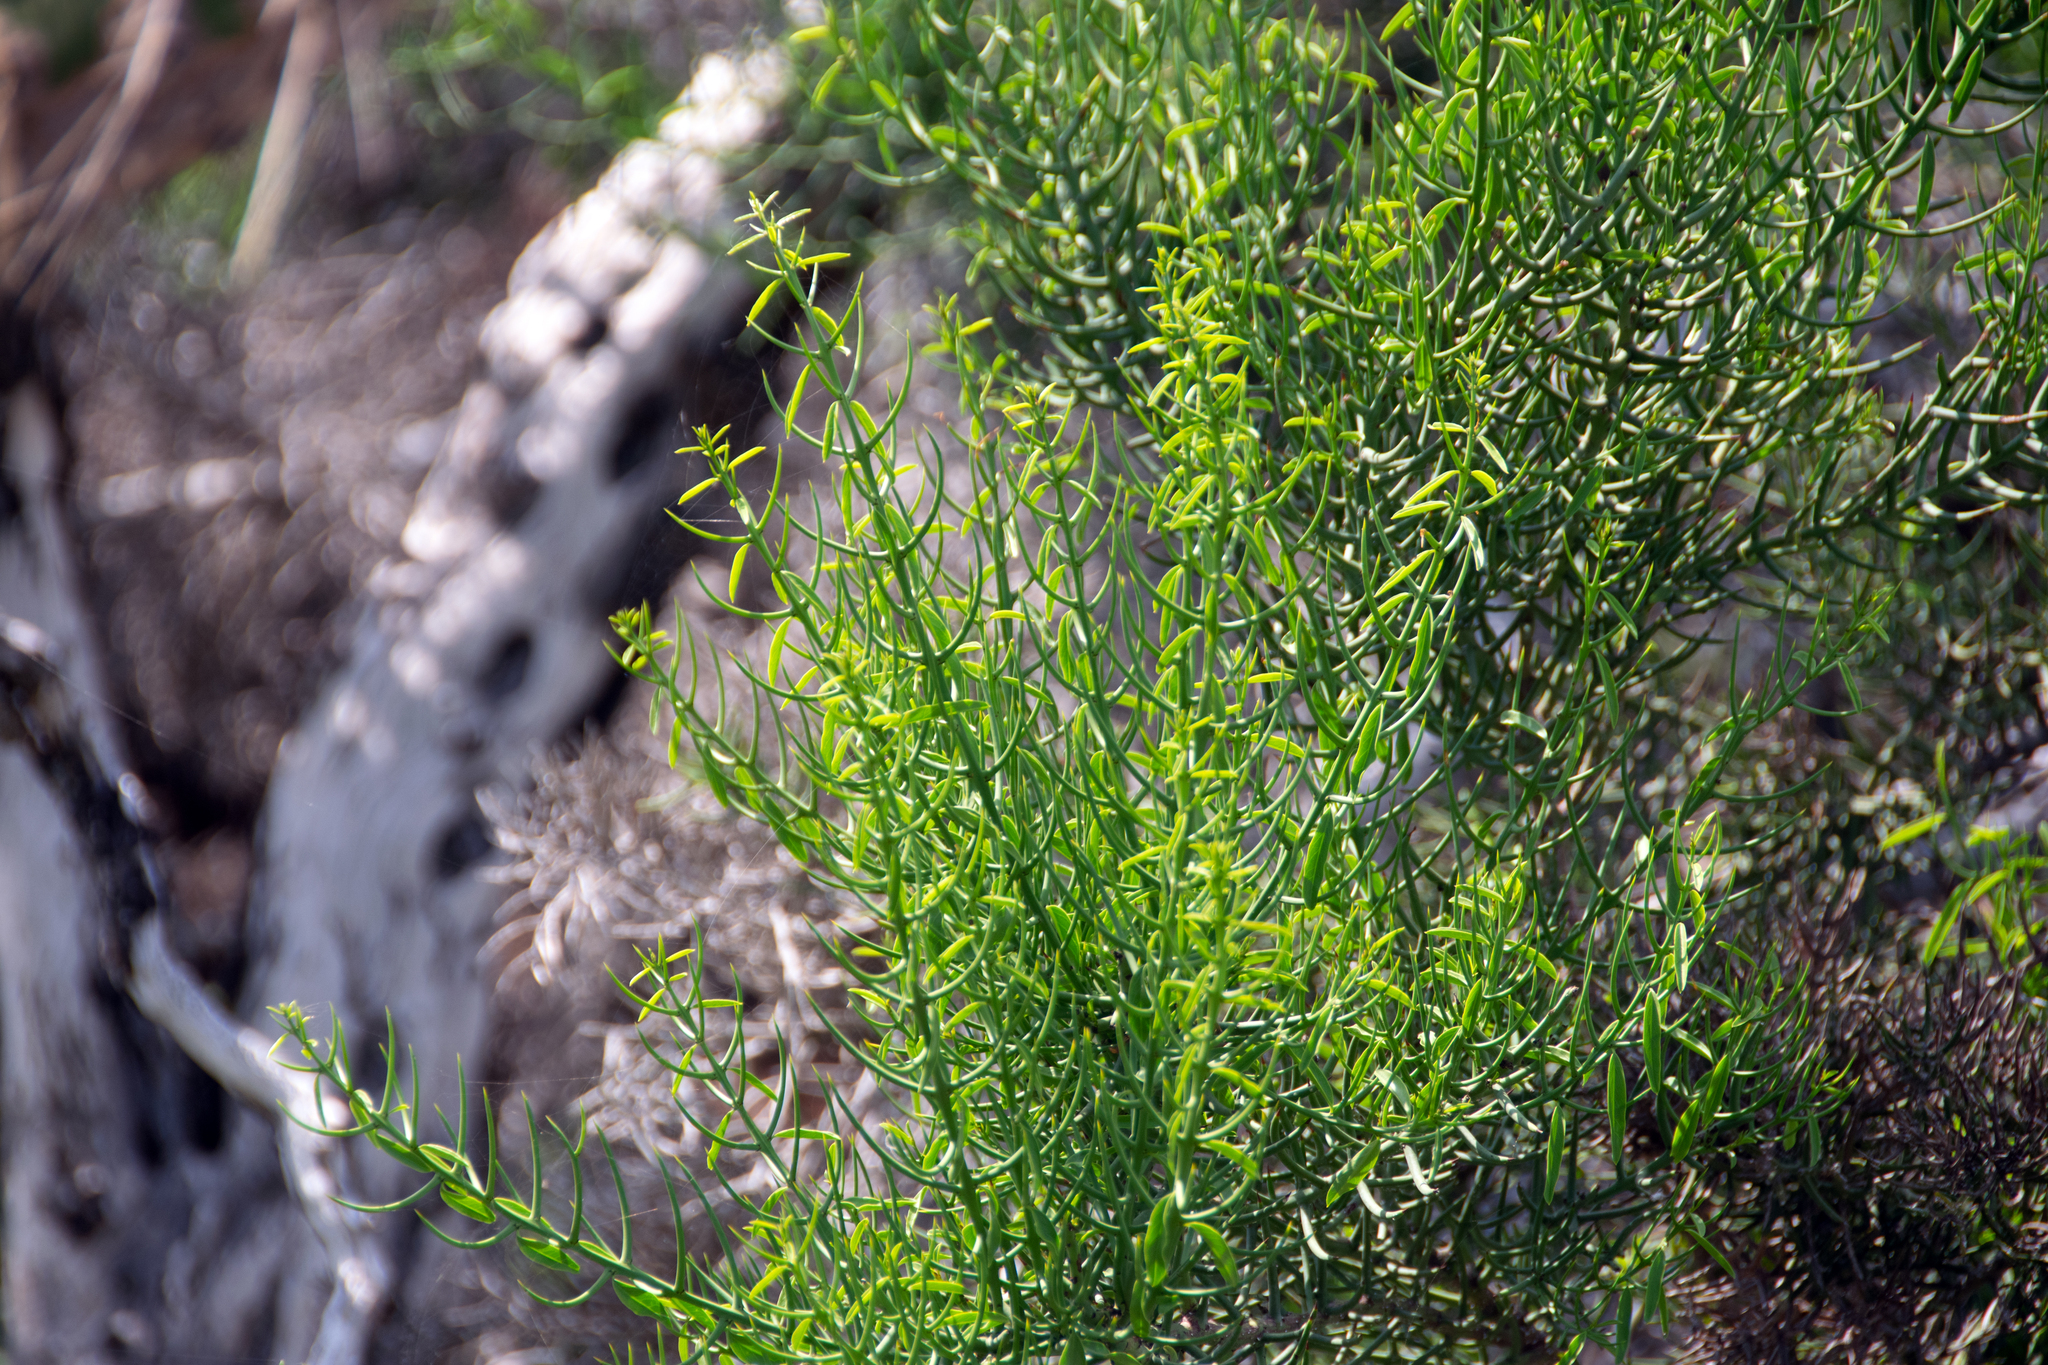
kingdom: Plantae
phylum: Tracheophyta
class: Magnoliopsida
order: Rosales
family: Rhamnaceae
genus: Scutia
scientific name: Scutia spicata
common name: Spiny bush
